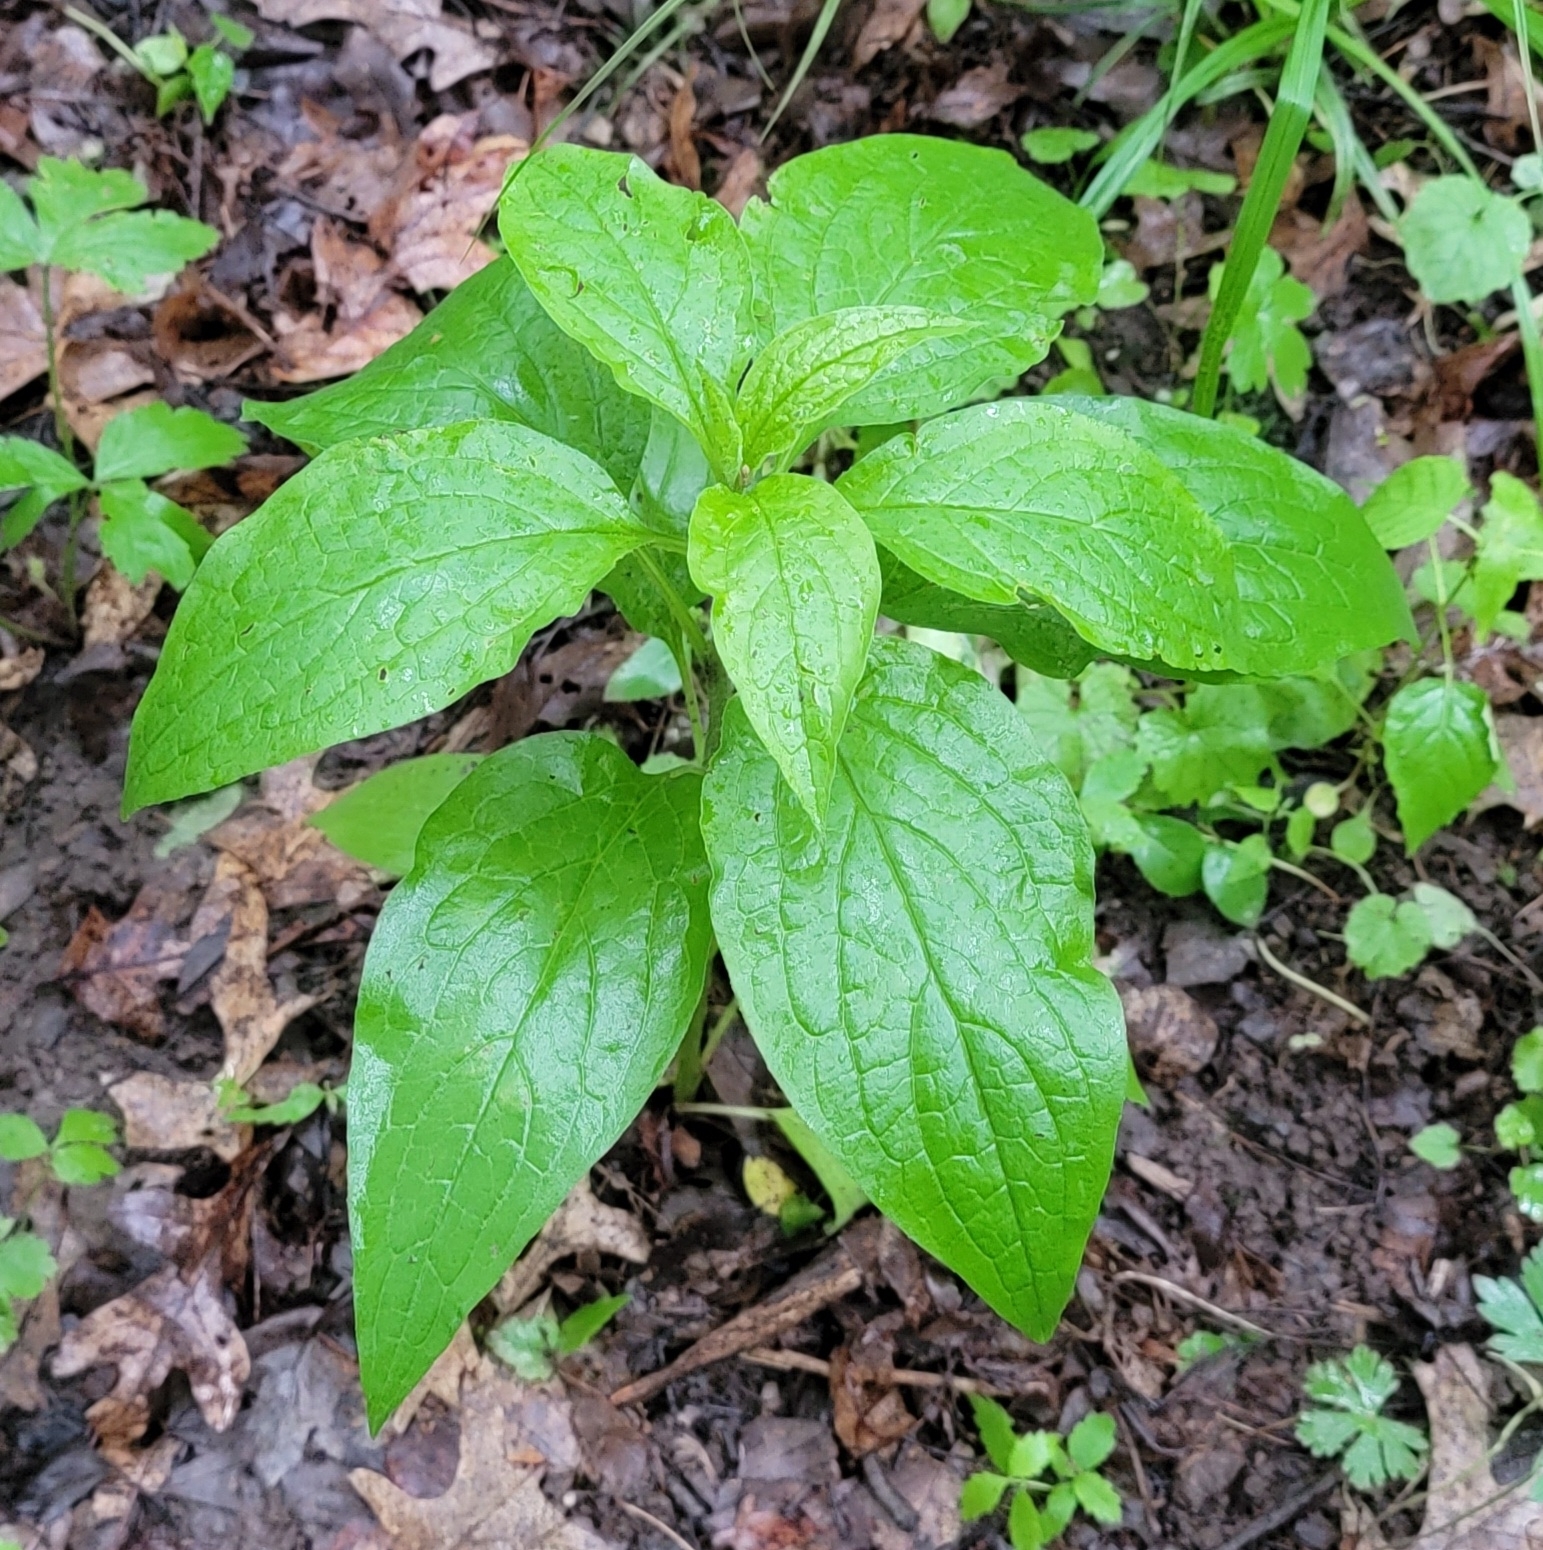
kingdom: Plantae
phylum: Tracheophyta
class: Magnoliopsida
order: Boraginales
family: Boraginaceae
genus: Hackelia
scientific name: Hackelia virginiana
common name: Beggar's-lice
